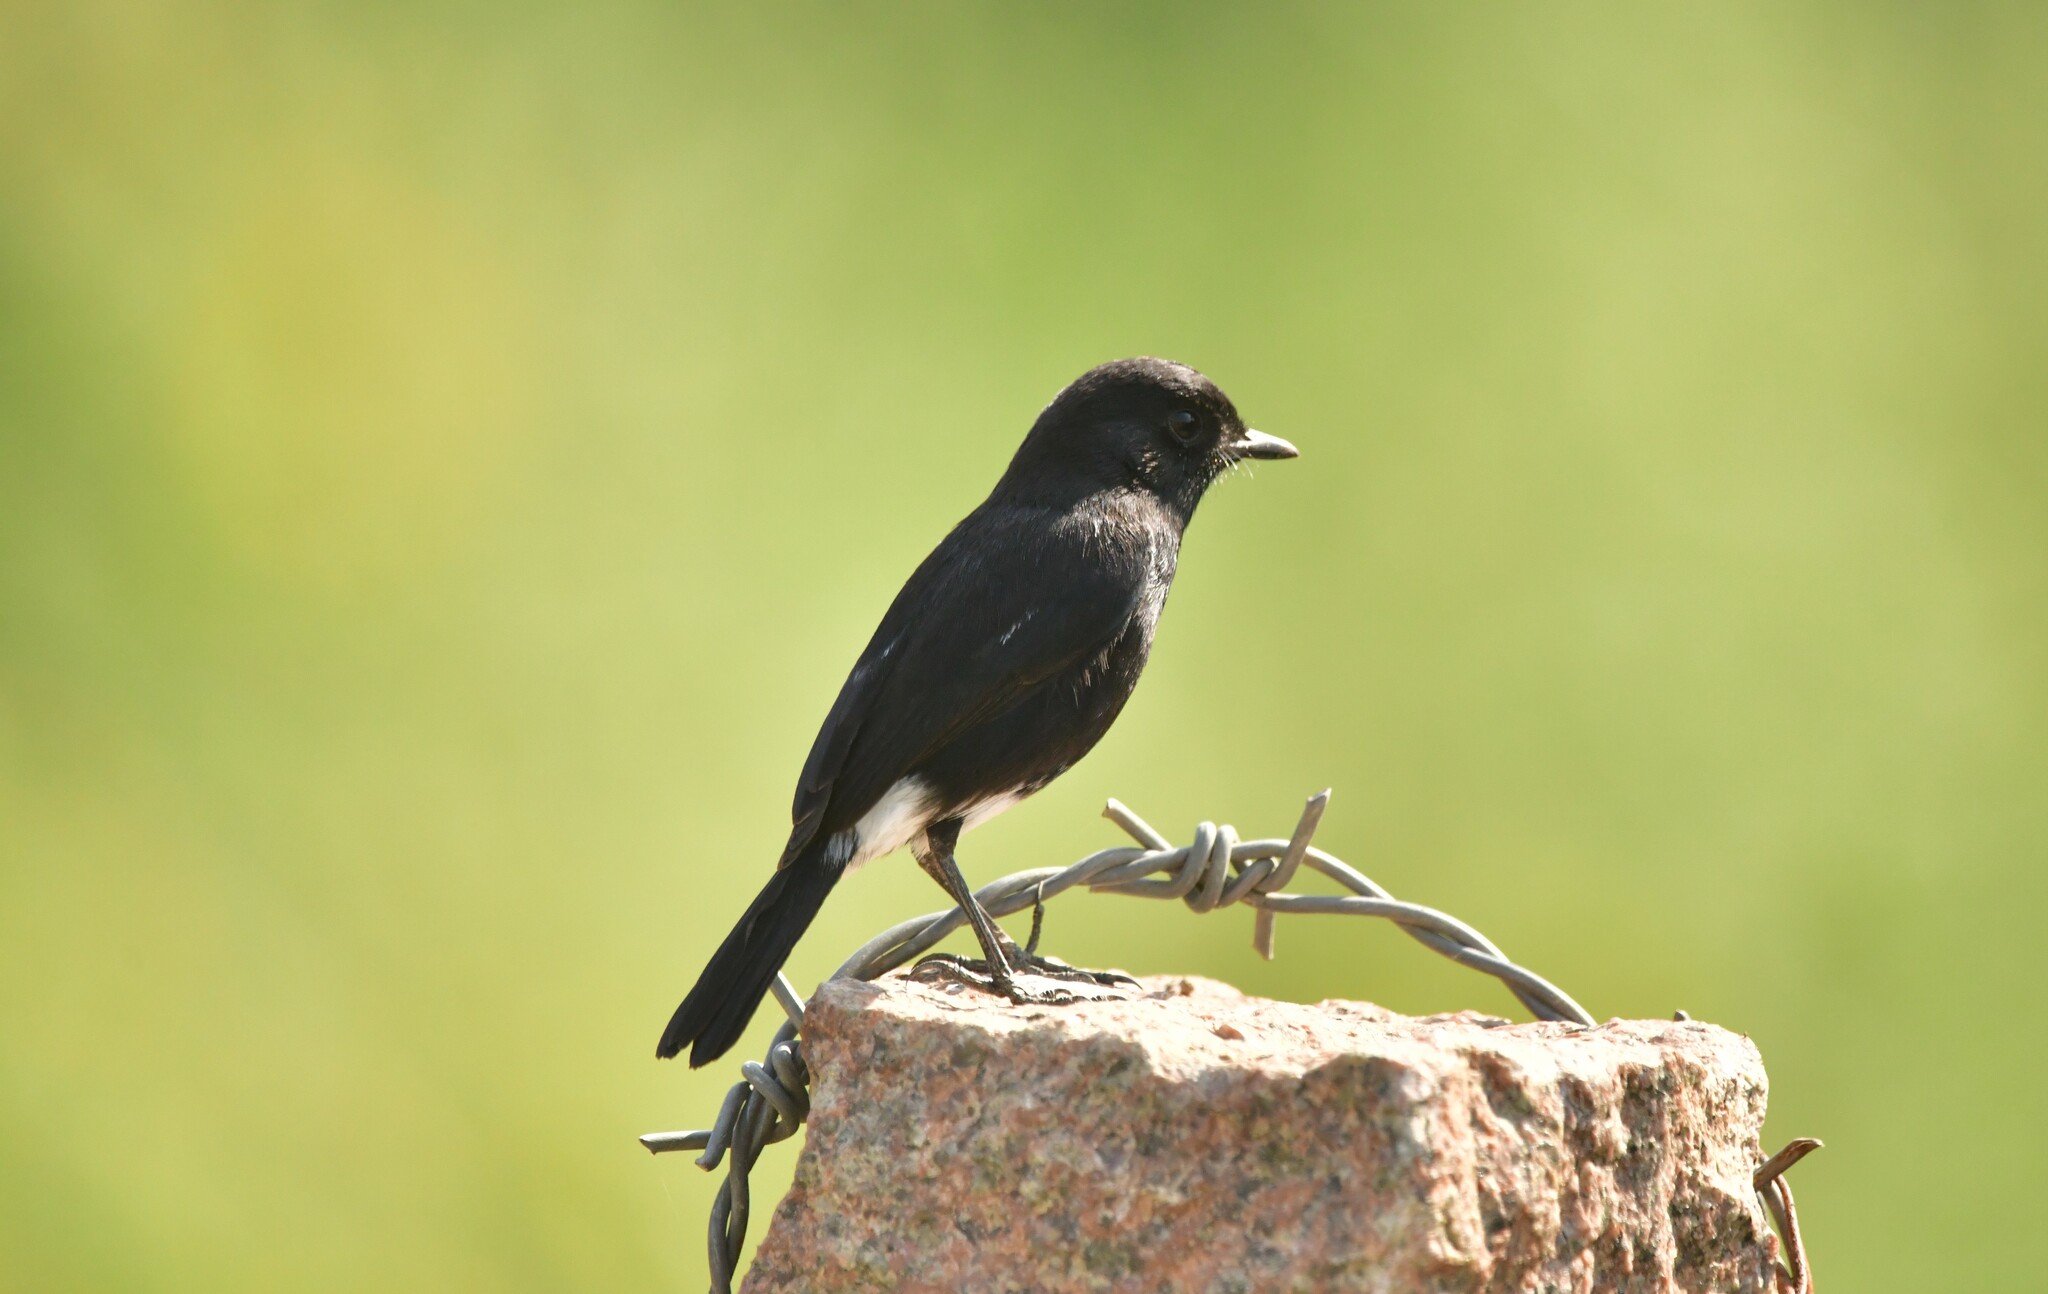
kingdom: Animalia
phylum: Chordata
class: Aves
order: Passeriformes
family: Muscicapidae
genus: Saxicola
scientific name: Saxicola caprata
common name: Pied bush chat
